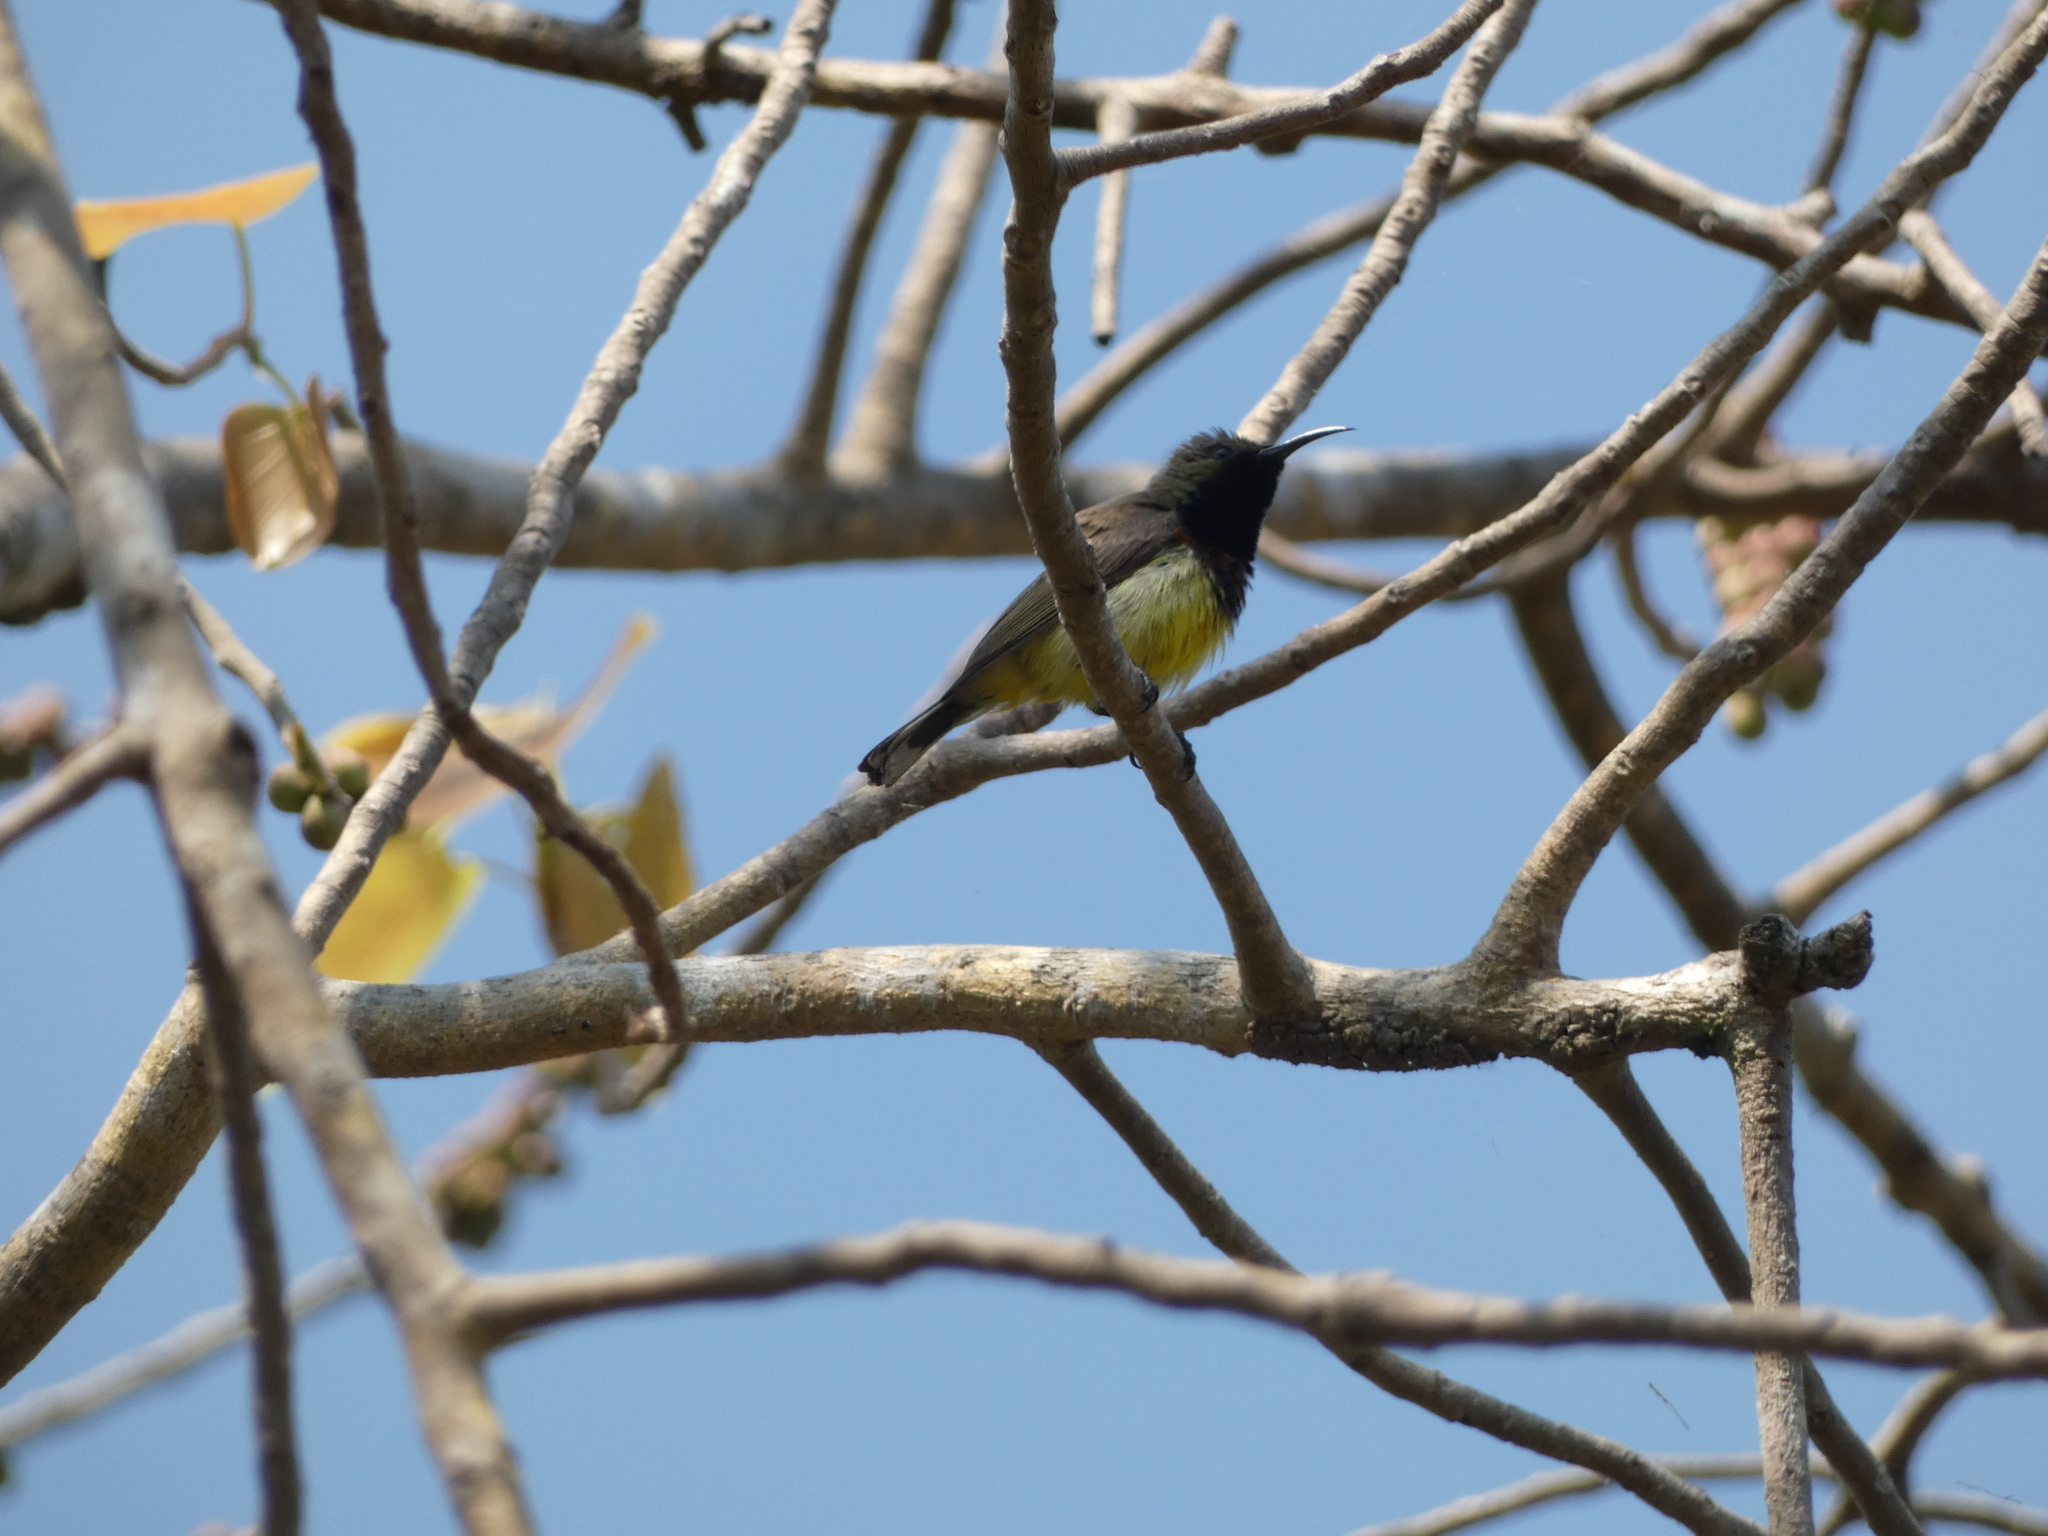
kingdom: Animalia
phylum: Chordata
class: Aves
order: Passeriformes
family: Nectariniidae
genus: Cinnyris
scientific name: Cinnyris
